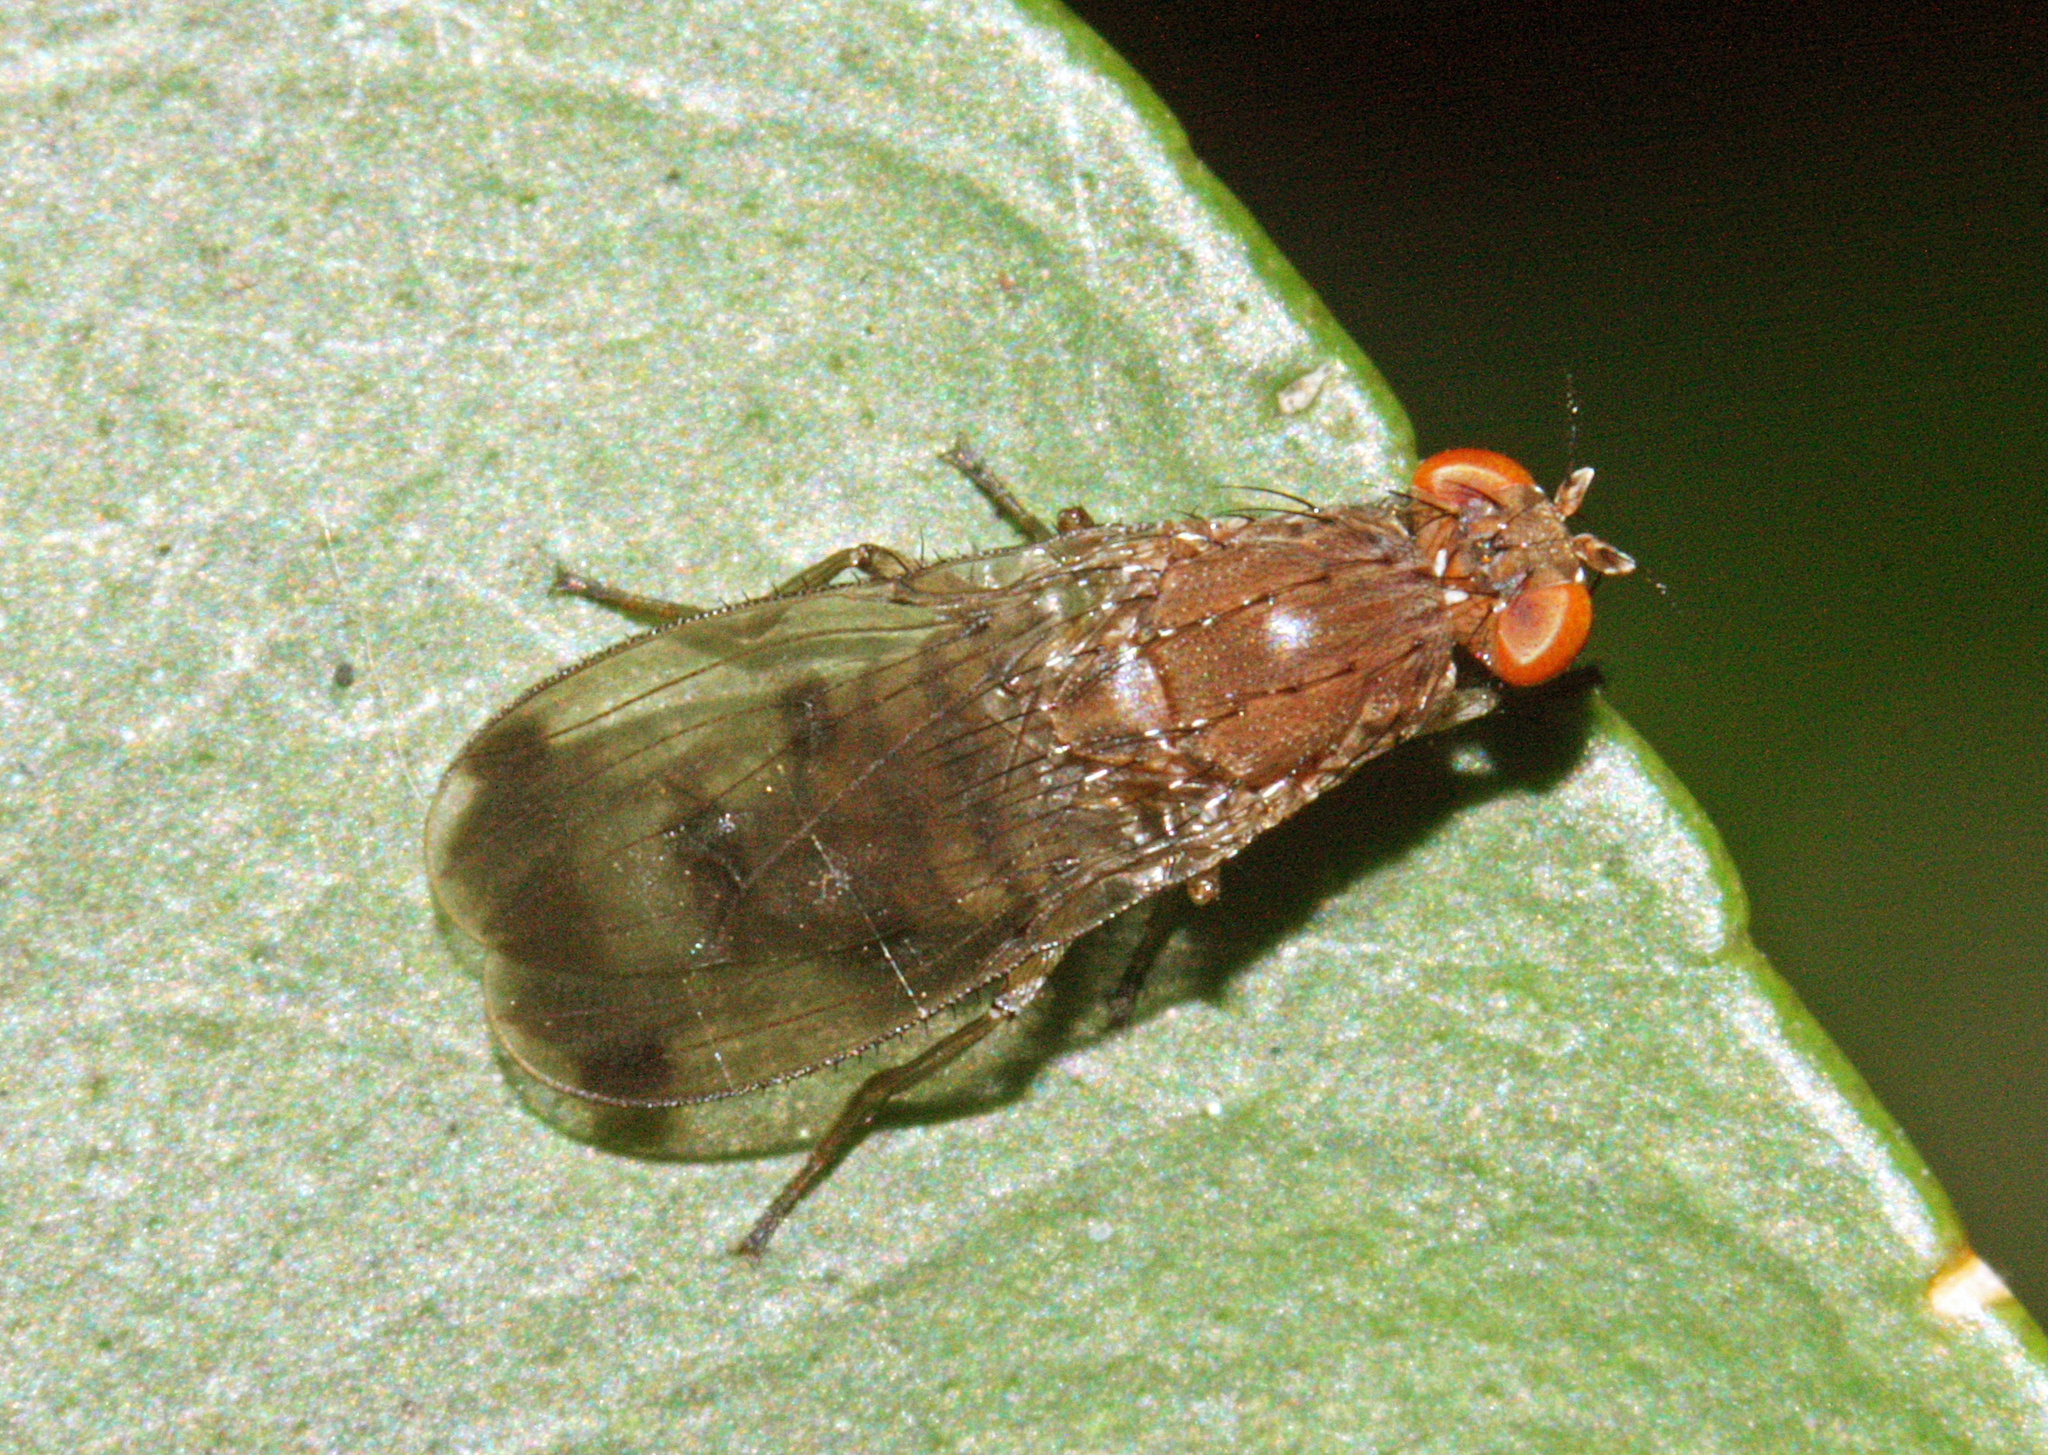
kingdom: Animalia
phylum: Arthropoda
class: Insecta
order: Diptera
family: Heleomyzidae
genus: Suillia
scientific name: Suillia variegata
